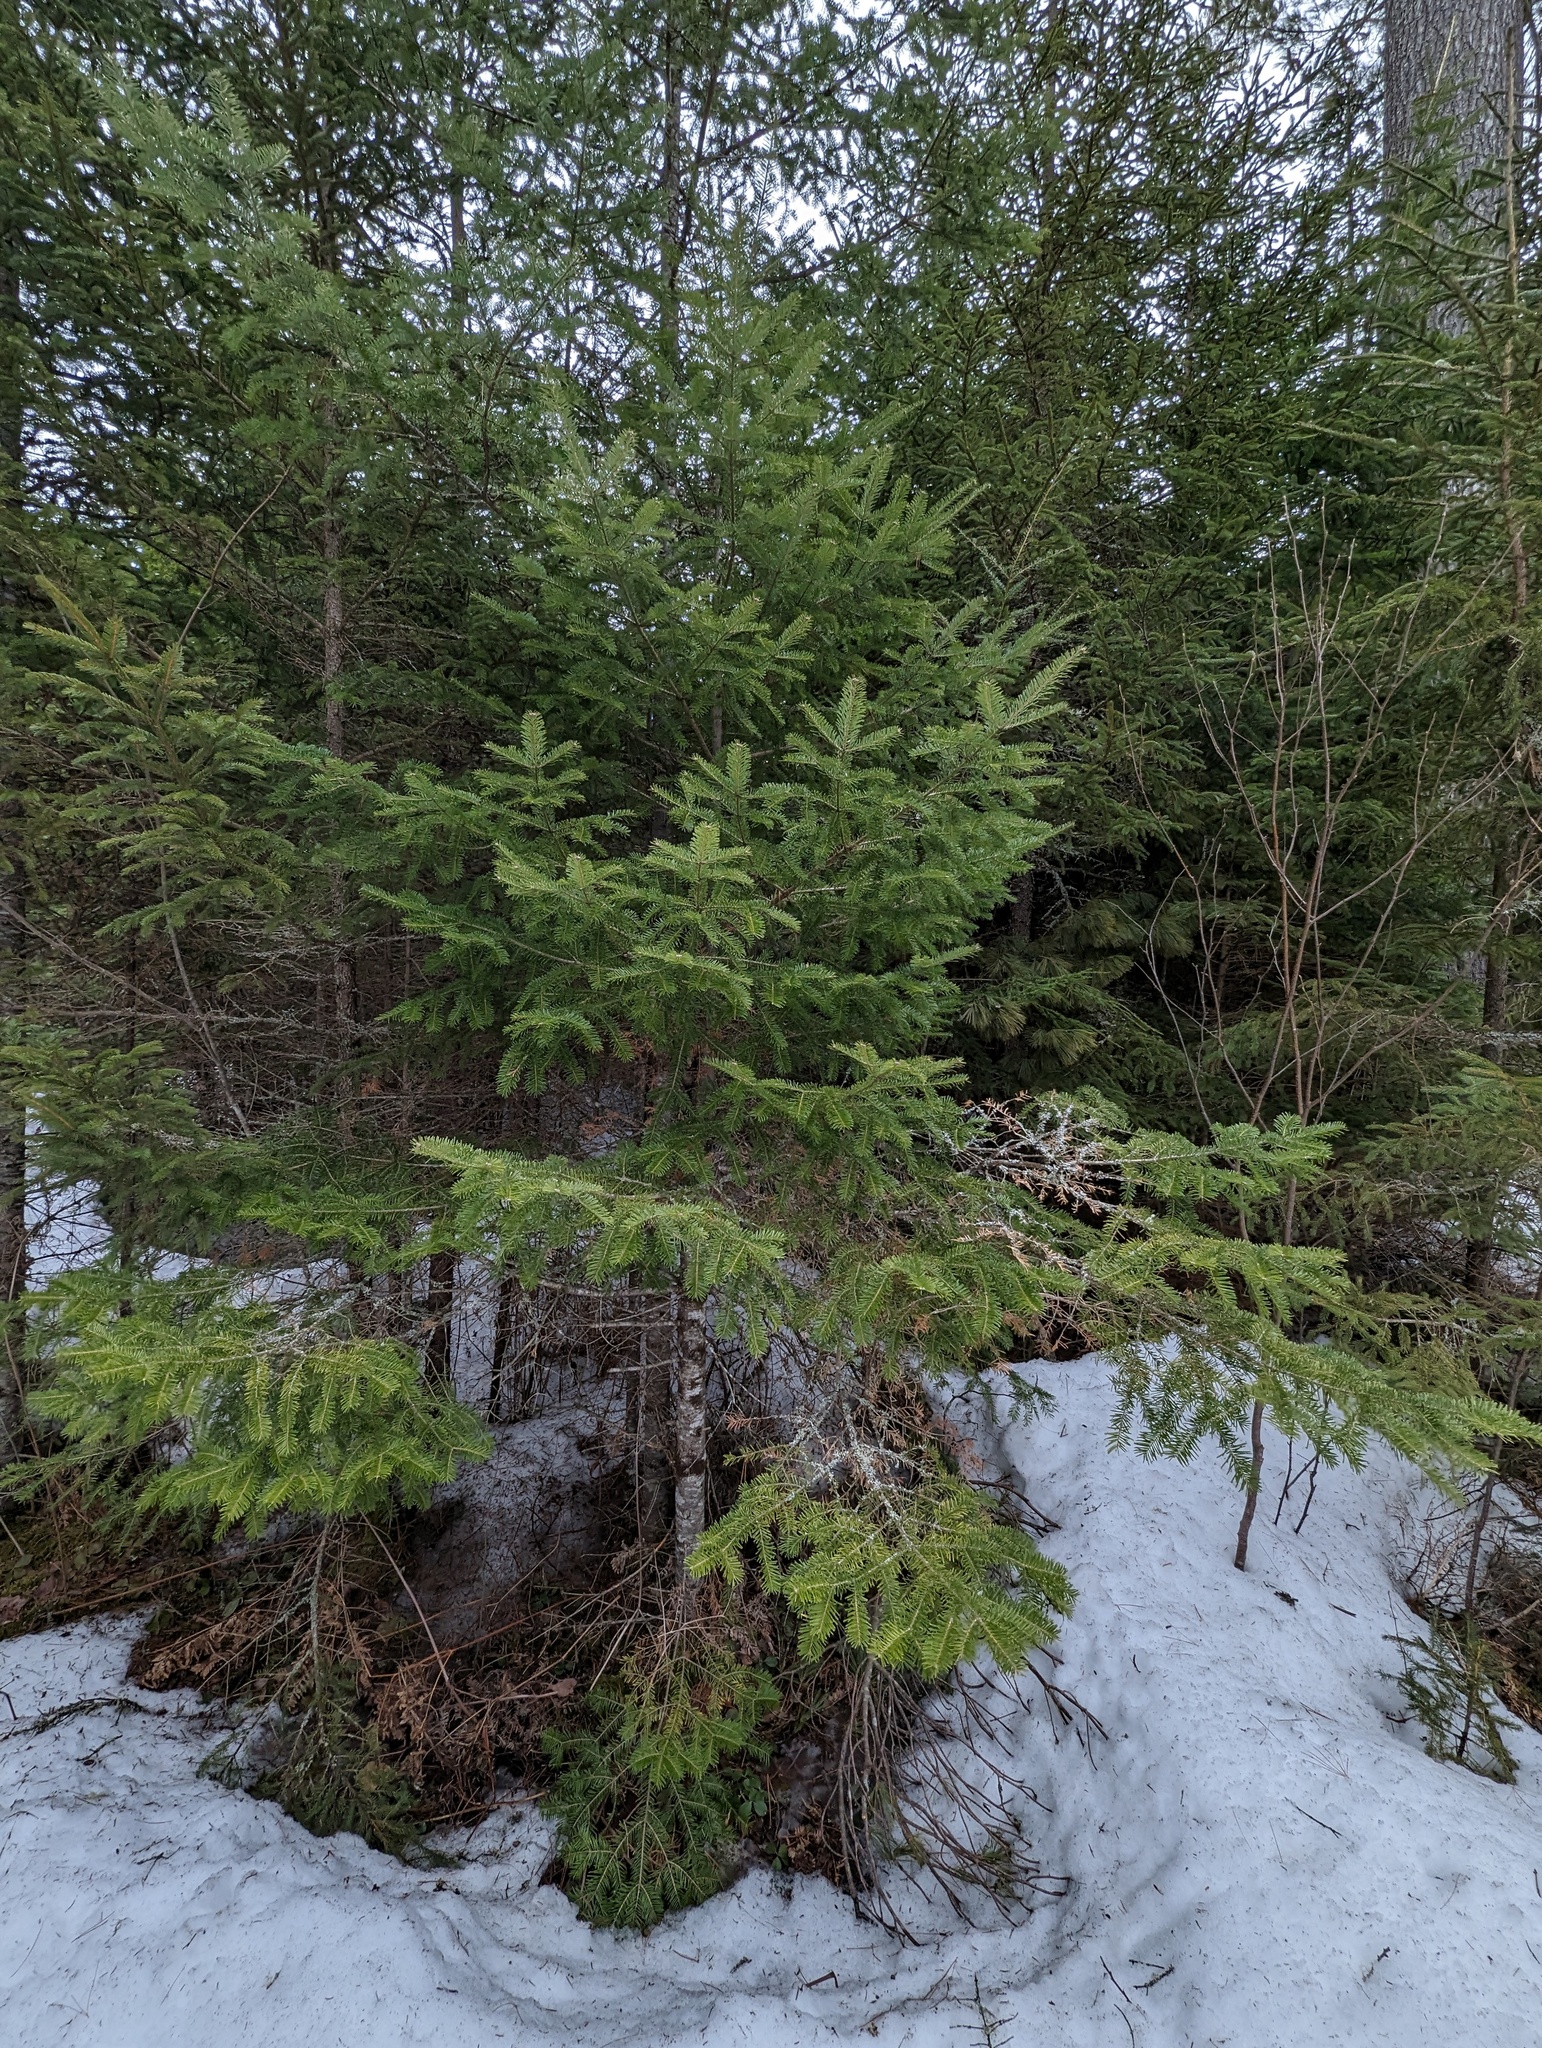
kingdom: Plantae
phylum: Tracheophyta
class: Pinopsida
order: Pinales
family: Pinaceae
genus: Abies
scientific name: Abies balsamea
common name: Balsam fir
